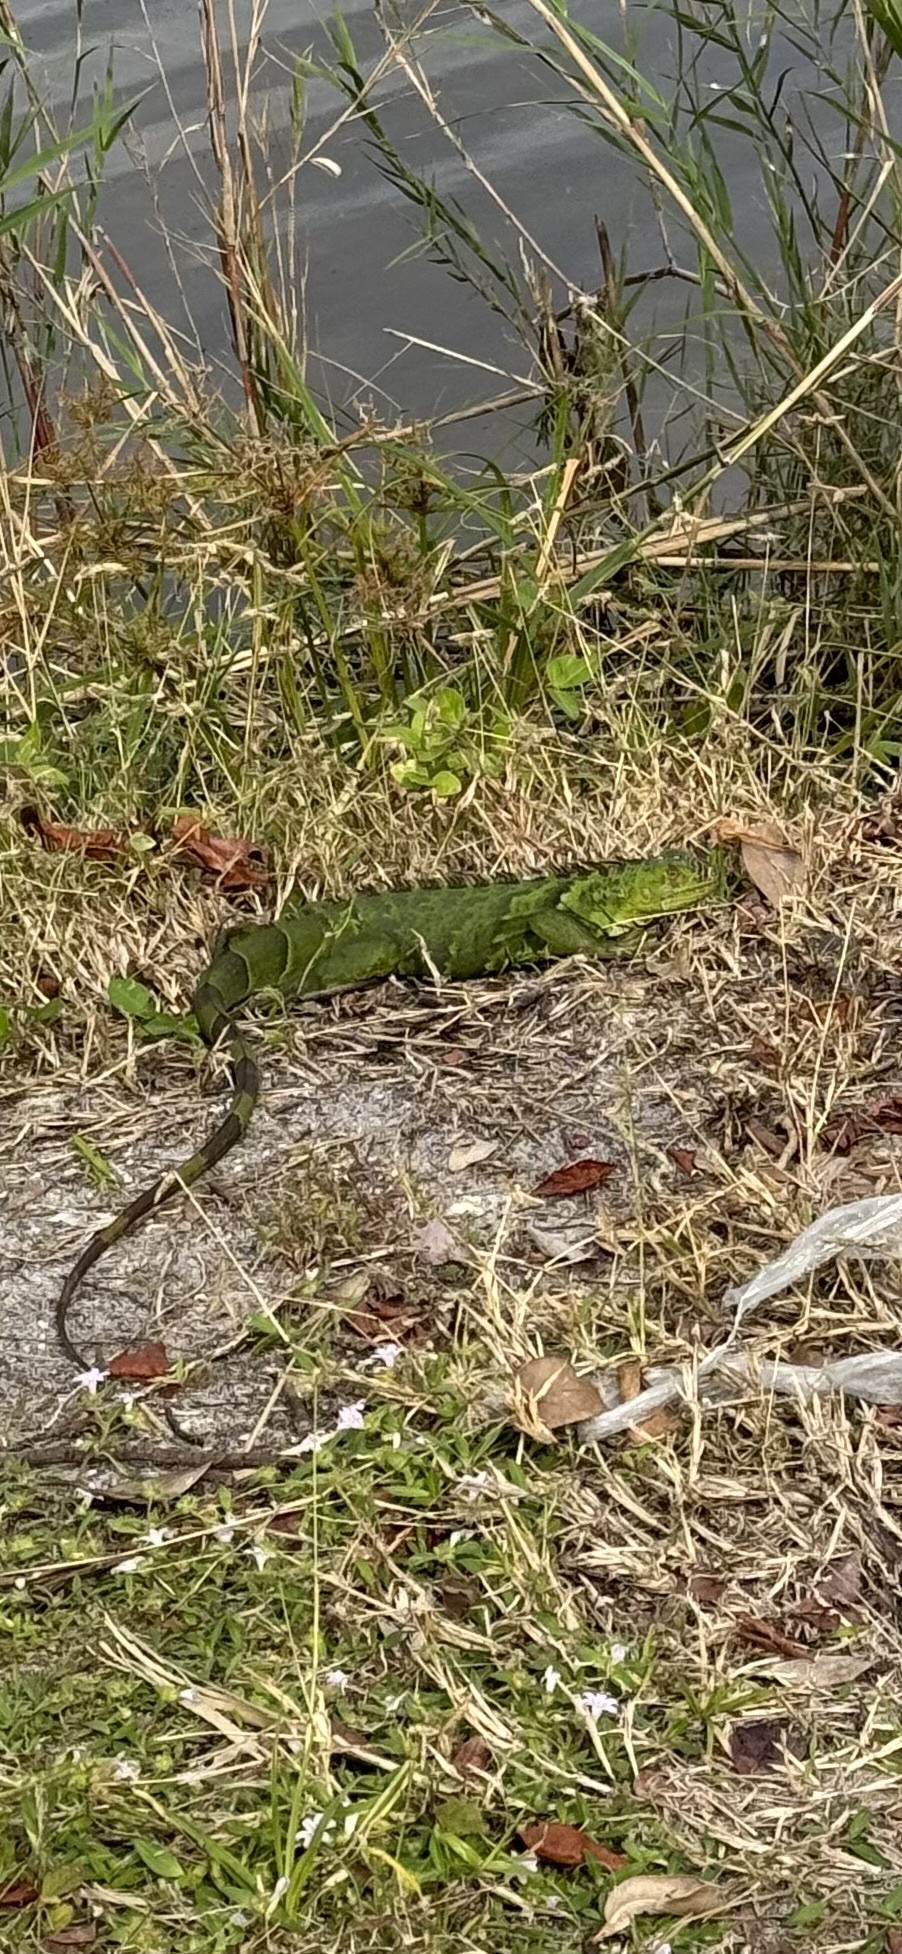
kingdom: Animalia
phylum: Chordata
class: Squamata
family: Iguanidae
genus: Iguana
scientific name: Iguana iguana
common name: Green iguana
